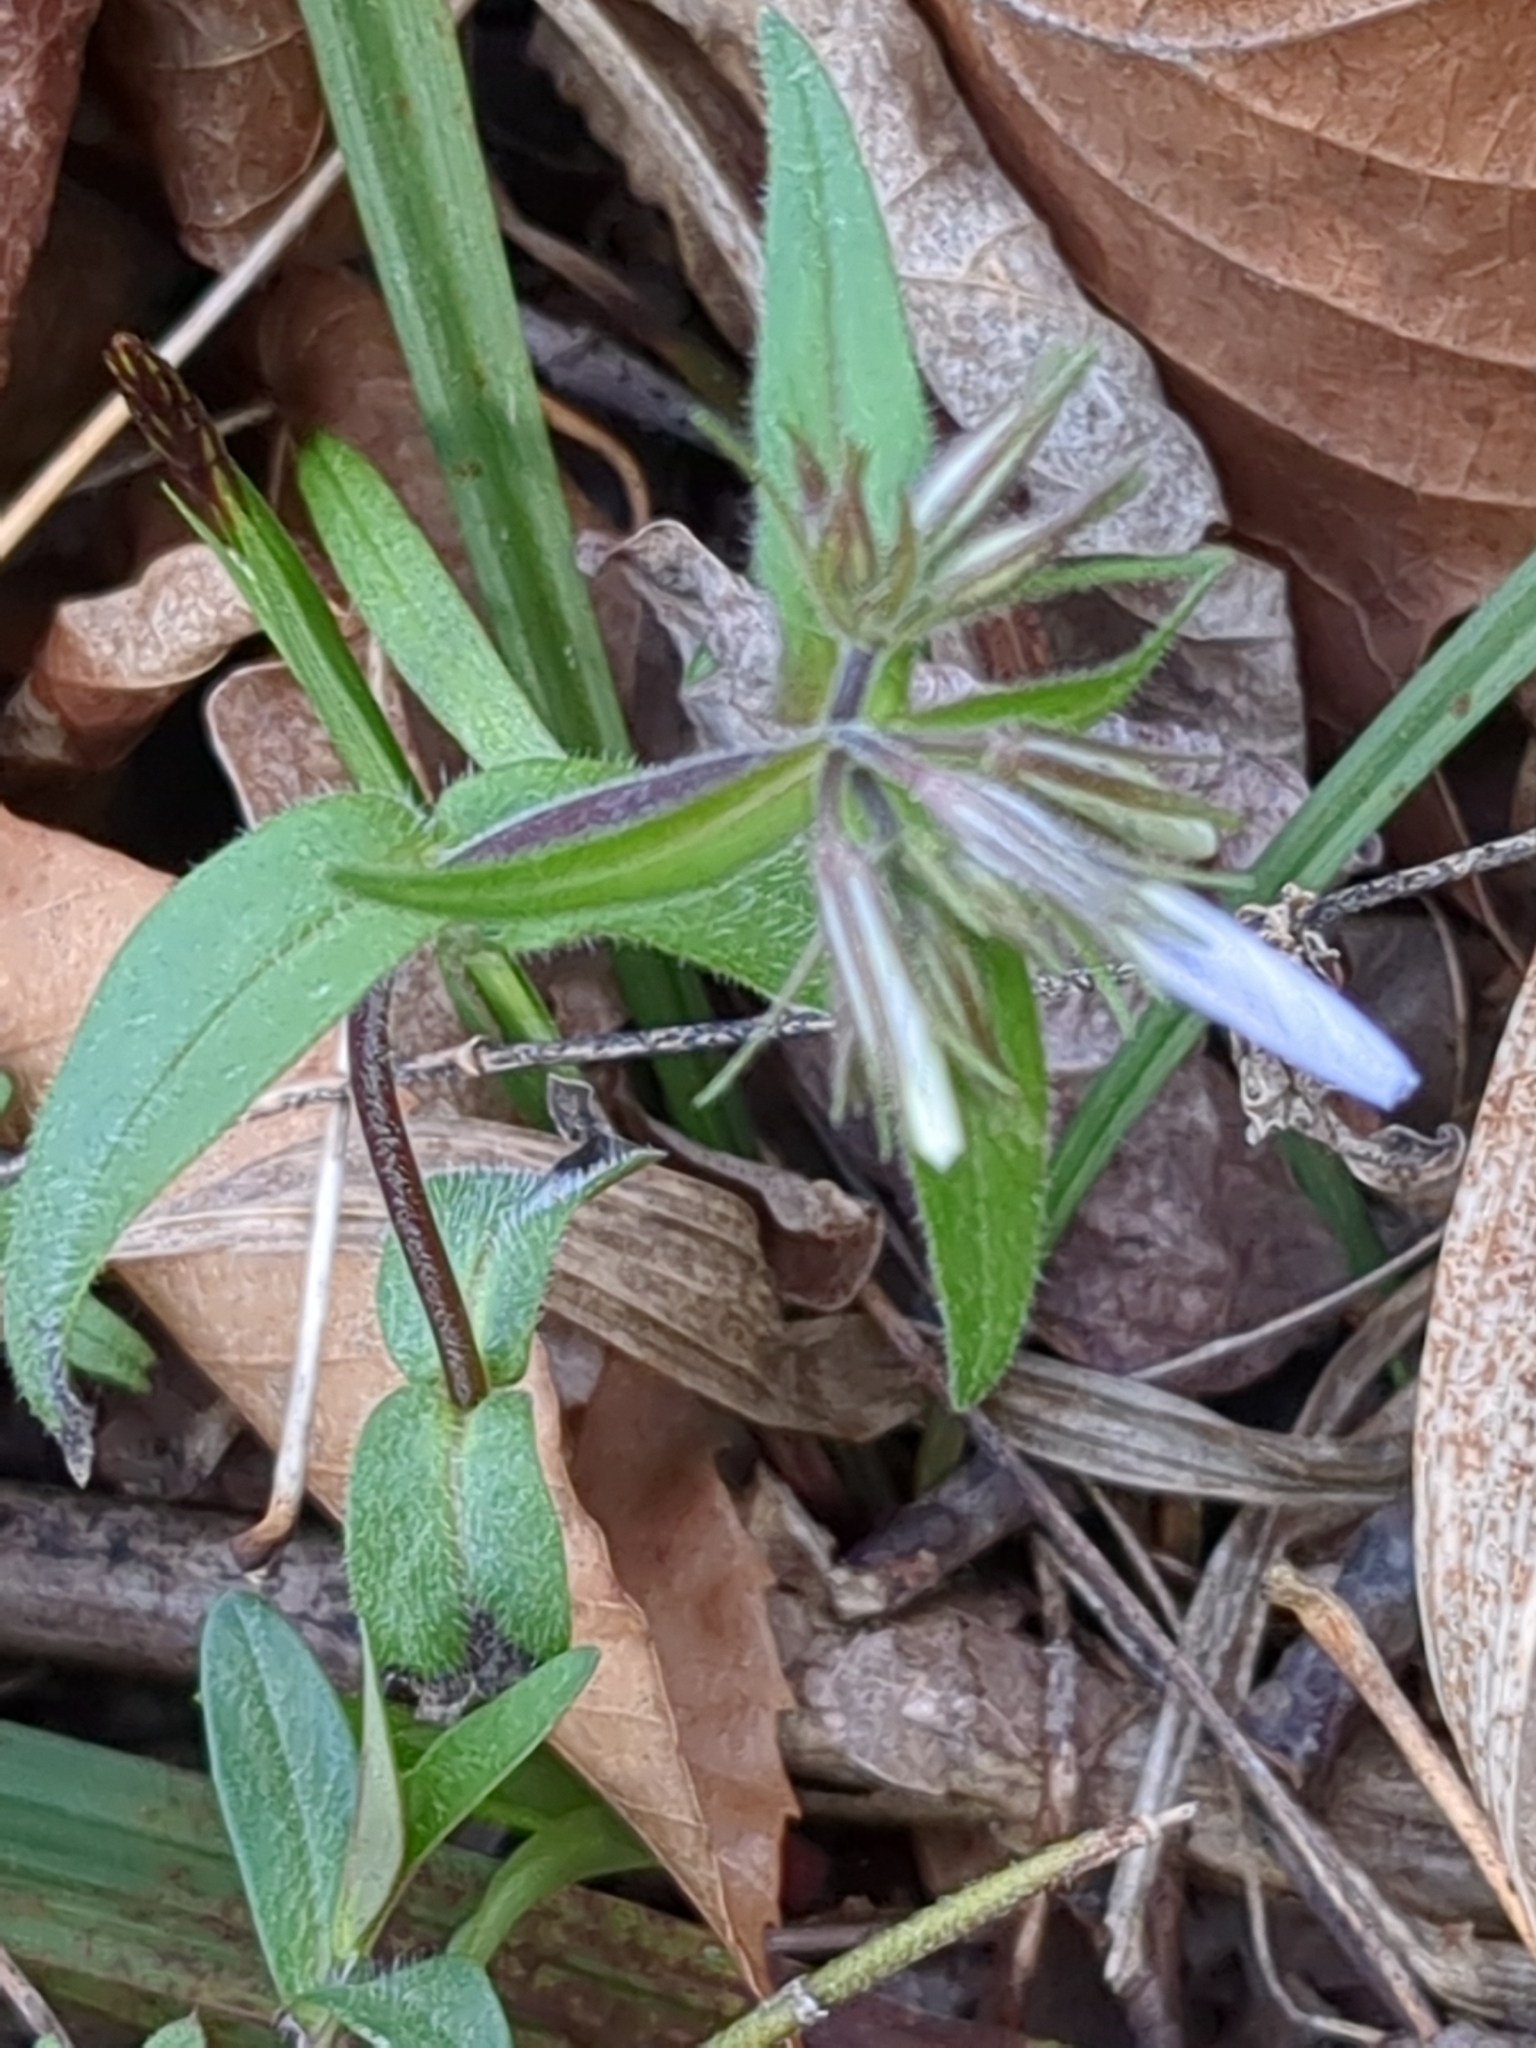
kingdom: Plantae
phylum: Tracheophyta
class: Magnoliopsida
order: Ericales
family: Polemoniaceae
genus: Phlox
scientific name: Phlox divaricata
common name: Blue phlox
